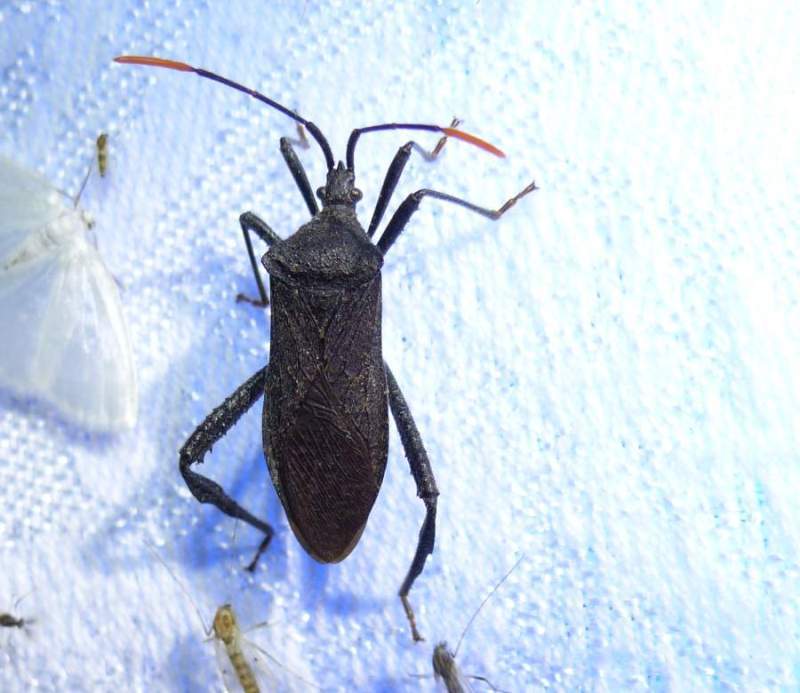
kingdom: Animalia
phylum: Arthropoda
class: Insecta
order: Hemiptera
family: Coreidae
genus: Acanthocephala
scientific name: Acanthocephala terminalis
